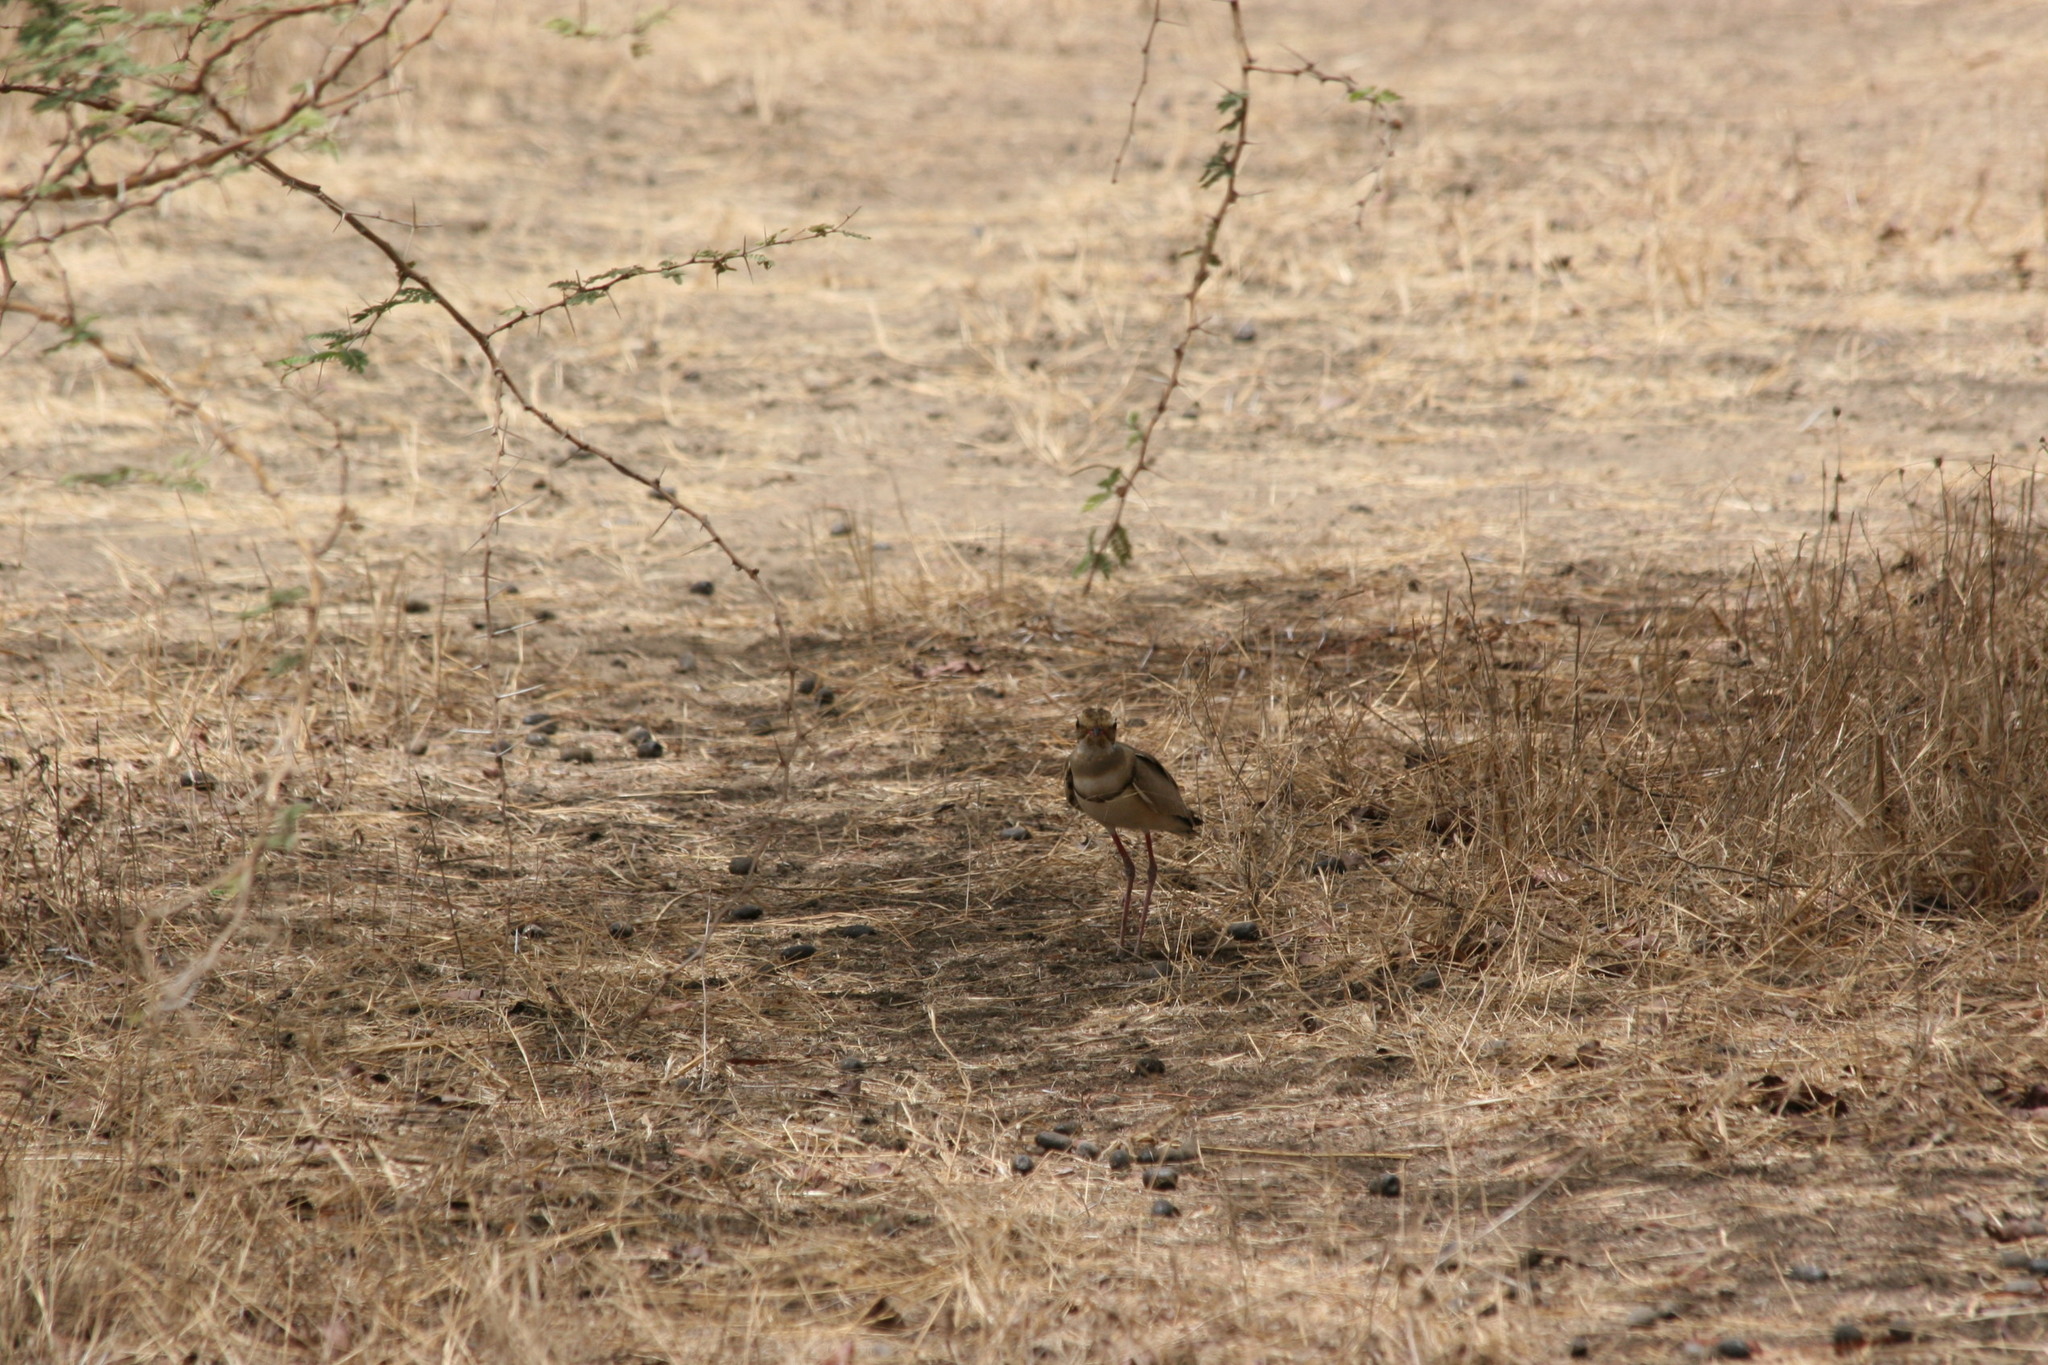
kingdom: Animalia
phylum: Chordata
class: Aves
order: Charadriiformes
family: Glareolidae
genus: Rhinoptilus
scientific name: Rhinoptilus chalcopterus
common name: Bronze-winged courser
